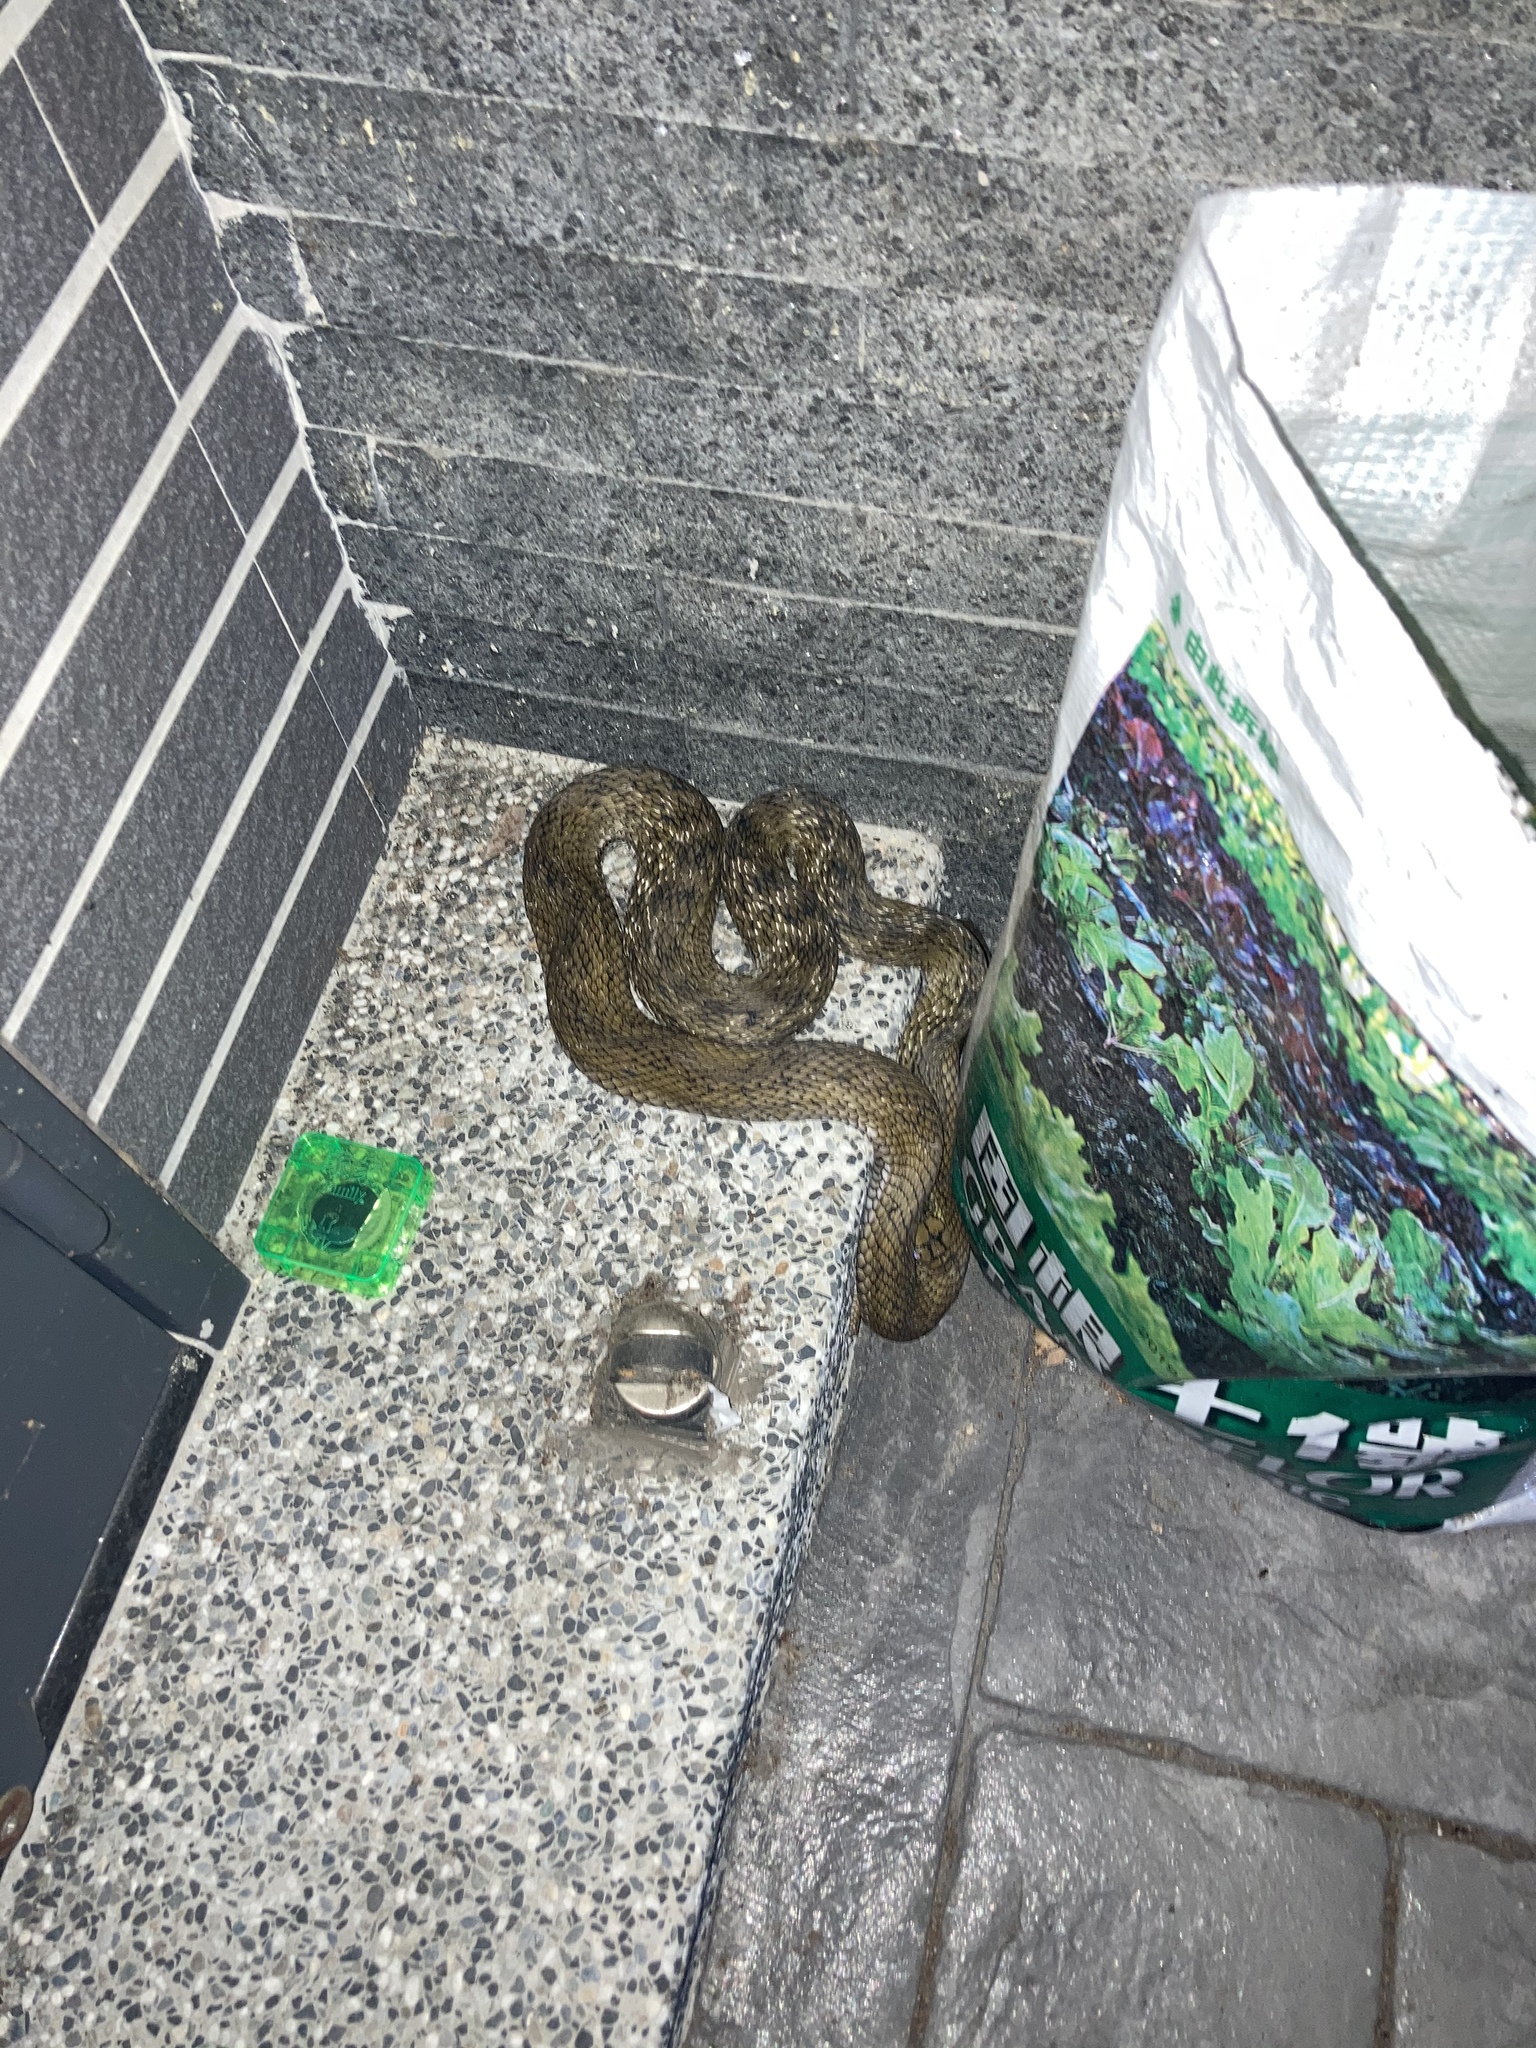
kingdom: Animalia
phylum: Chordata
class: Squamata
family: Colubridae
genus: Elaphe
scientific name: Elaphe carinata
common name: Taiwan stink snake
